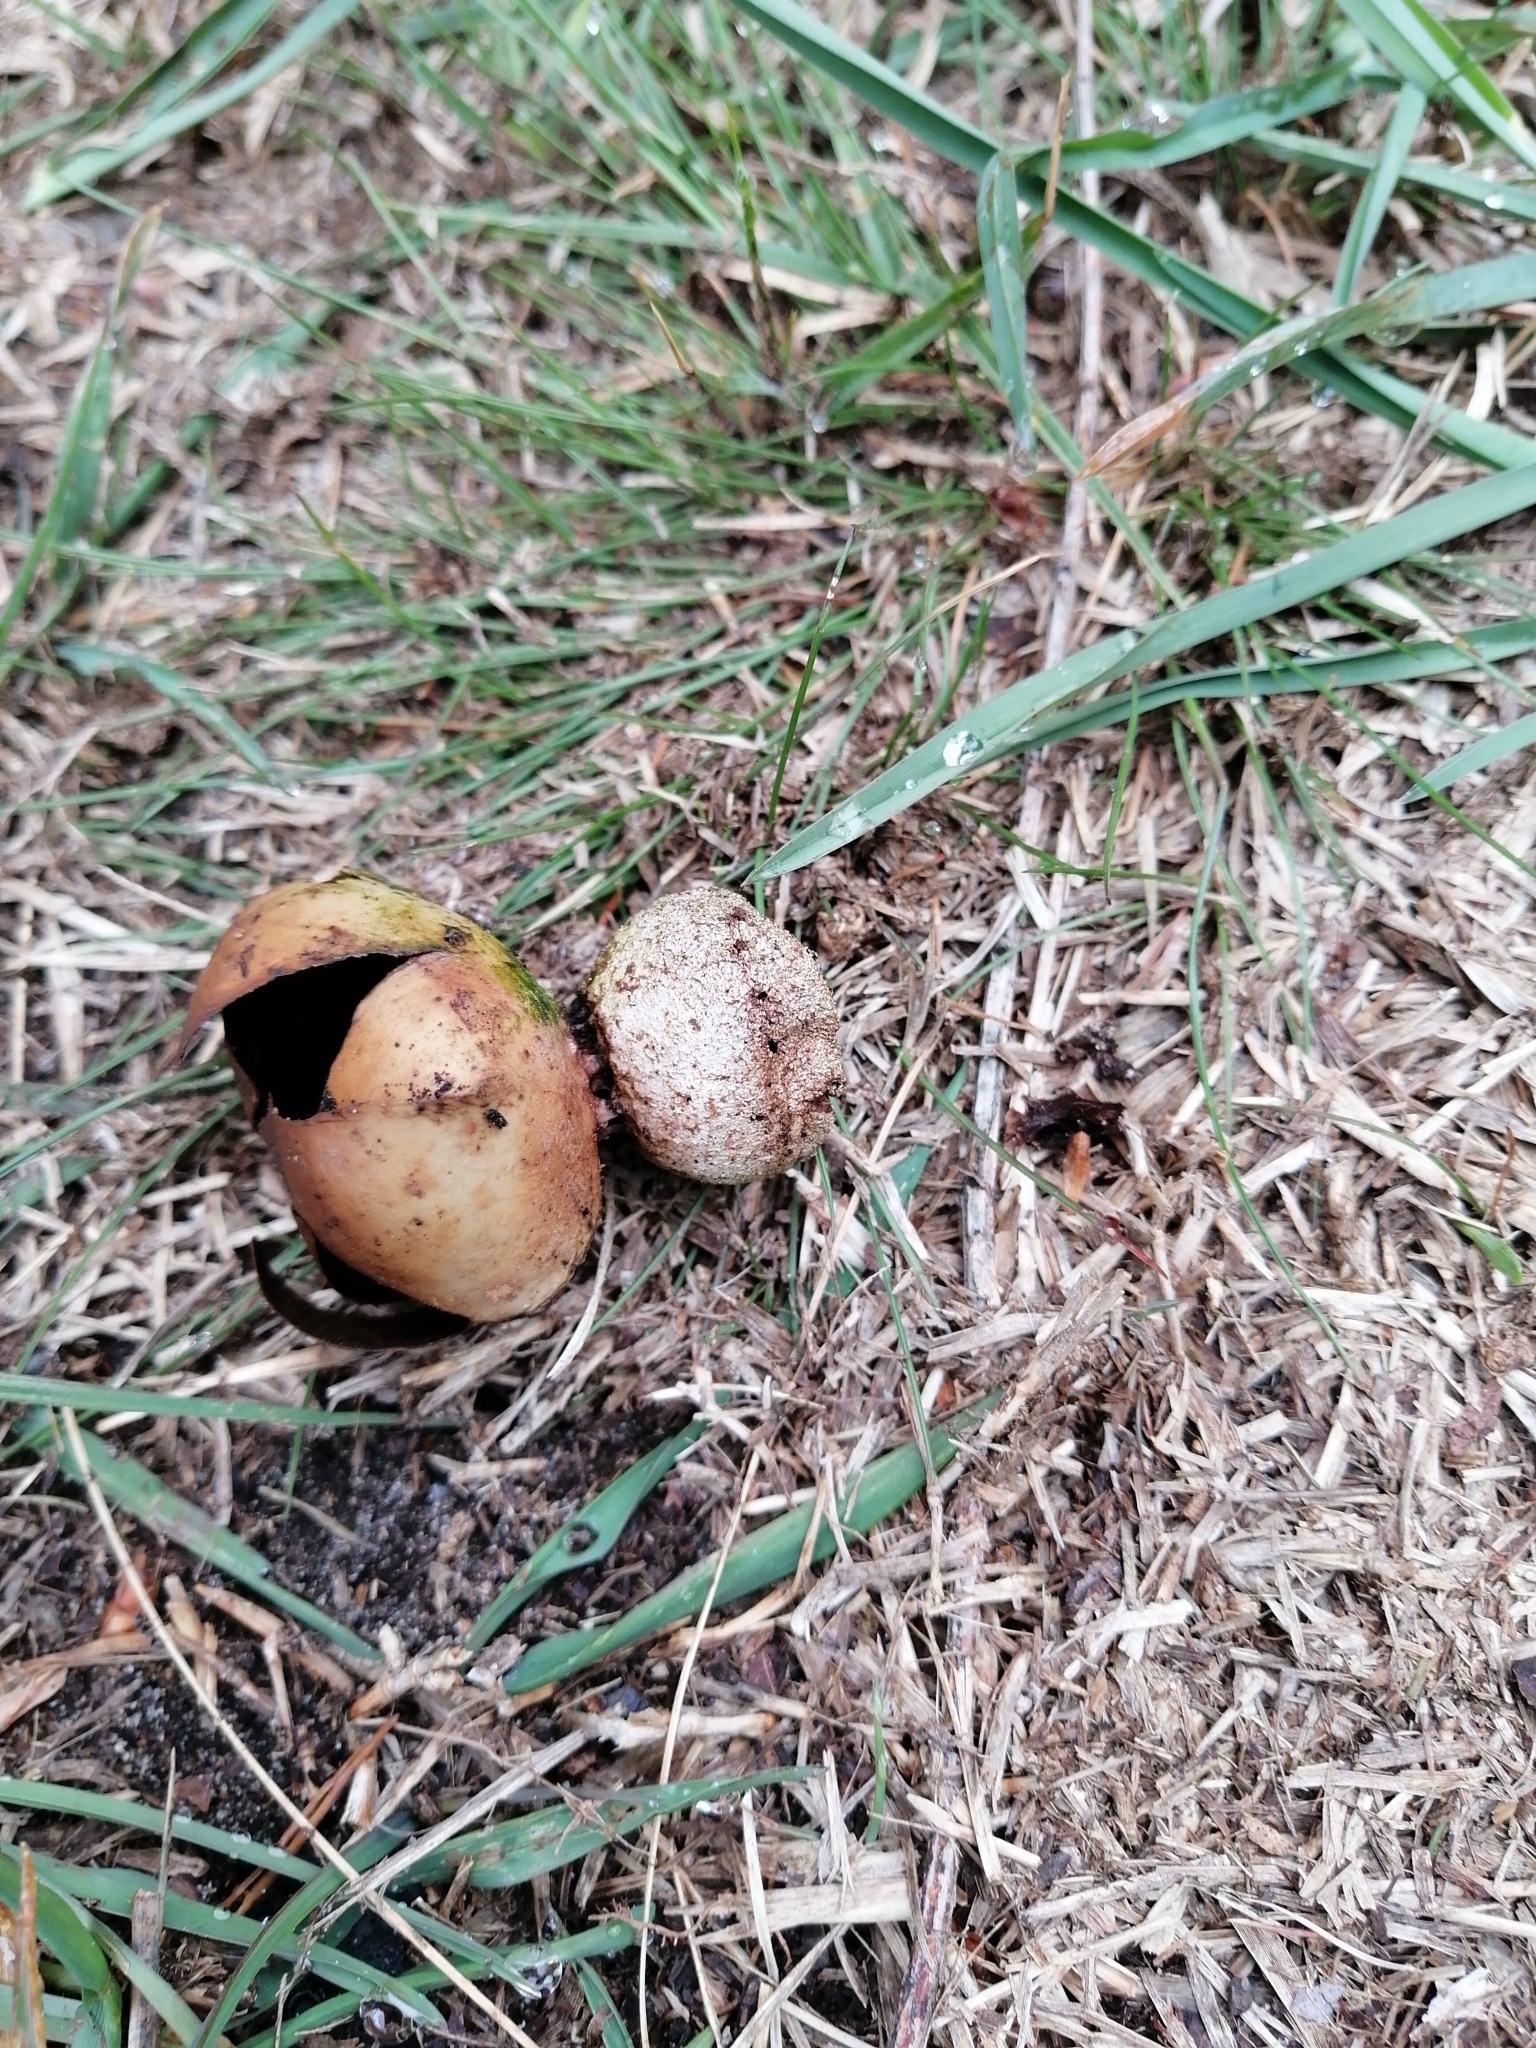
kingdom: Fungi
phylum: Basidiomycota
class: Agaricomycetes
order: Geastrales
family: Geastraceae
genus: Myriostoma
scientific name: Myriostoma coliforme
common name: Pepper pot
